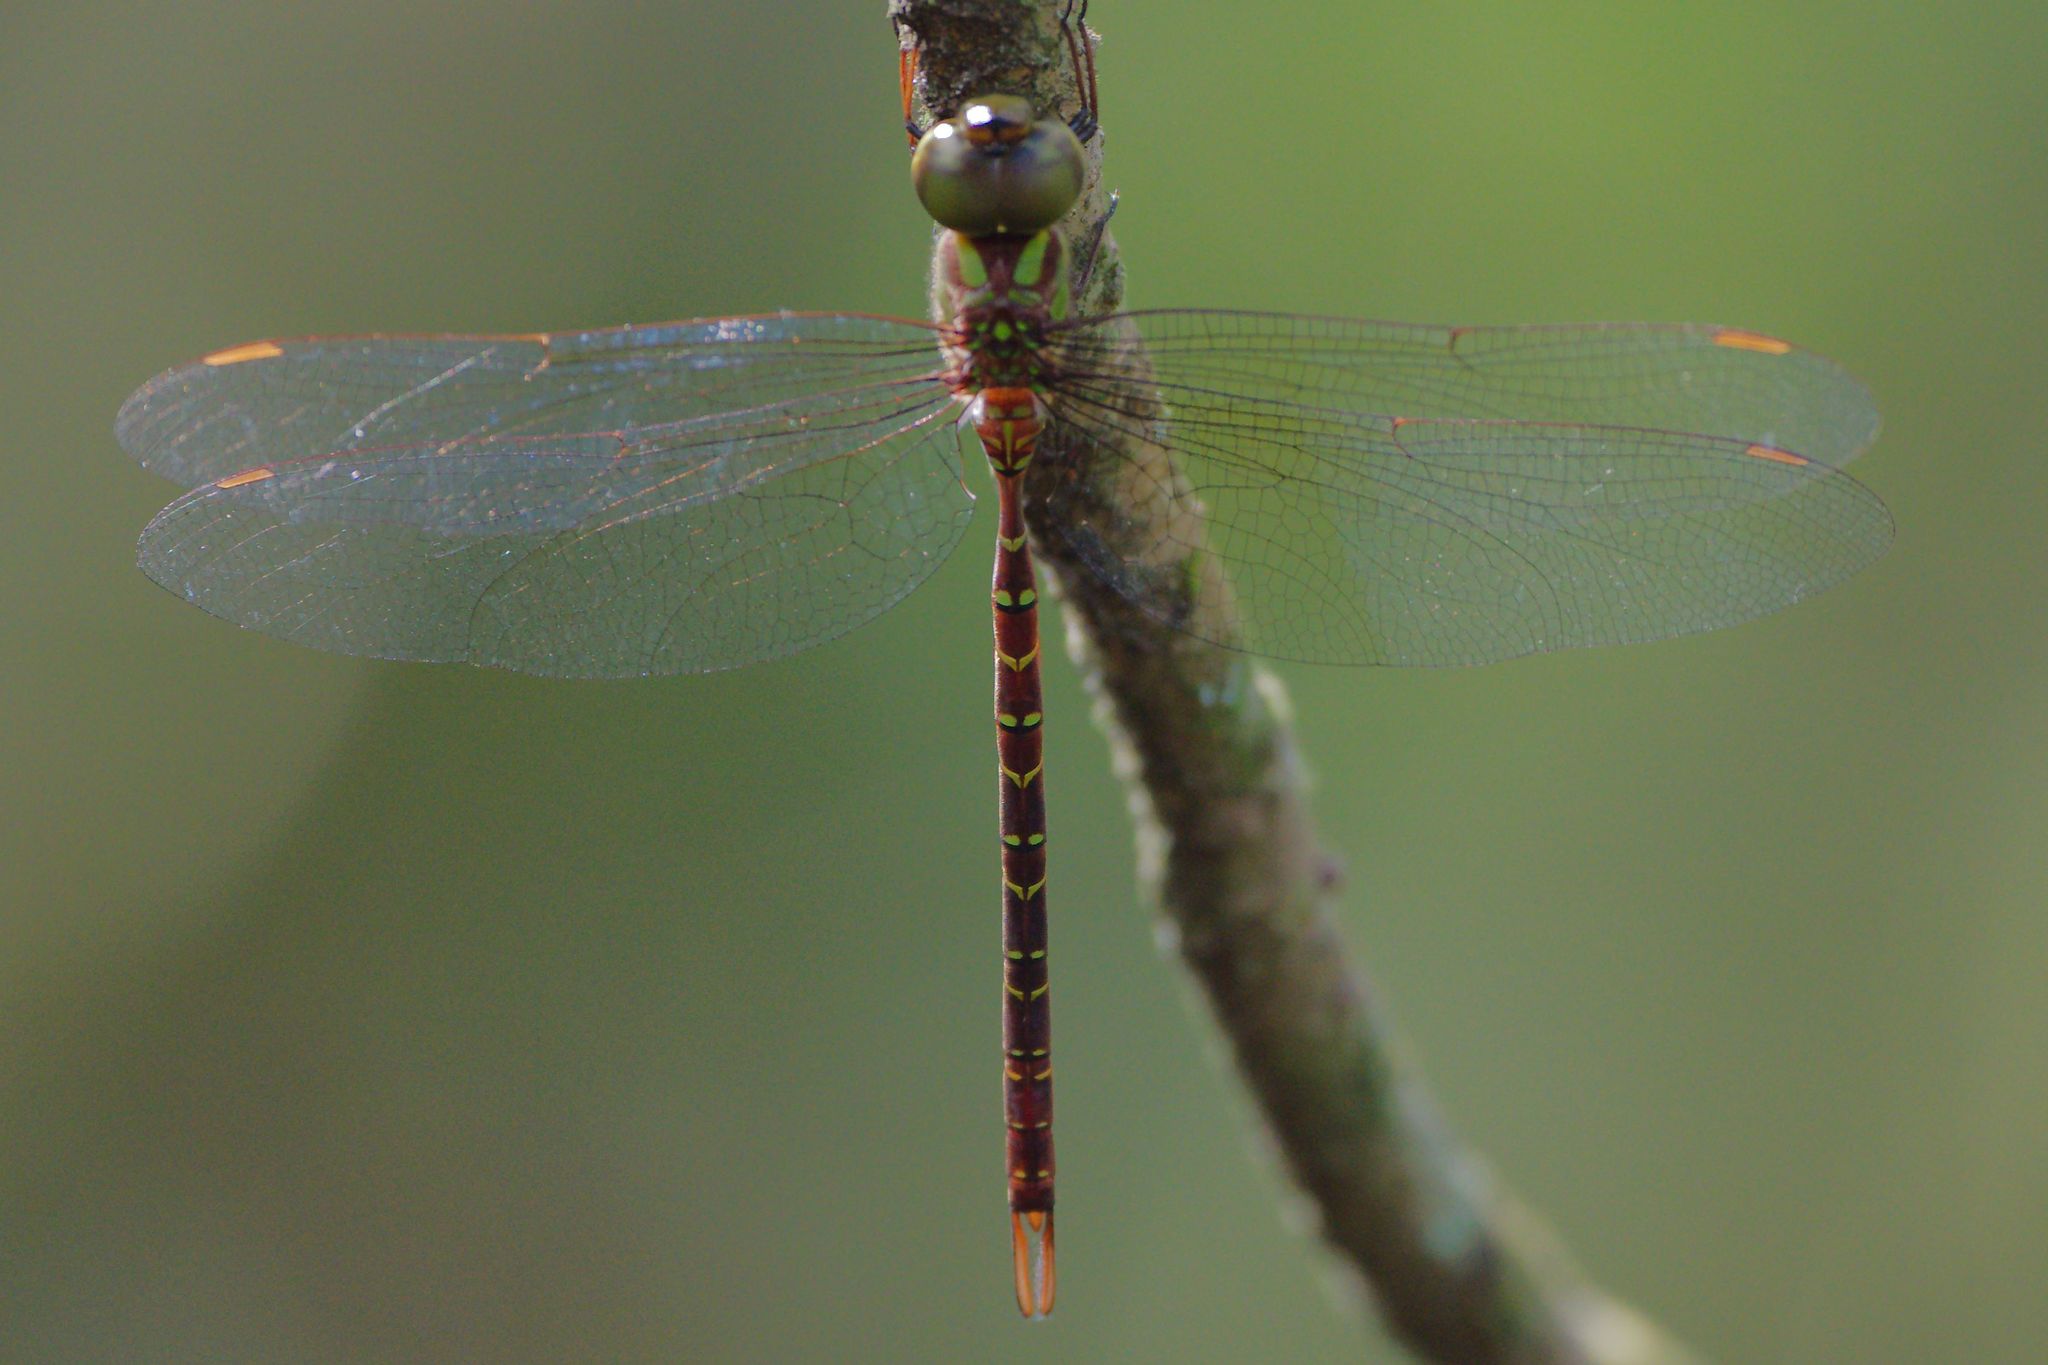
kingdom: Animalia
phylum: Arthropoda
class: Insecta
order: Odonata
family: Aeshnidae
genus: Triacanthagyna
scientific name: Triacanthagyna trifida
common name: Phantom darner
